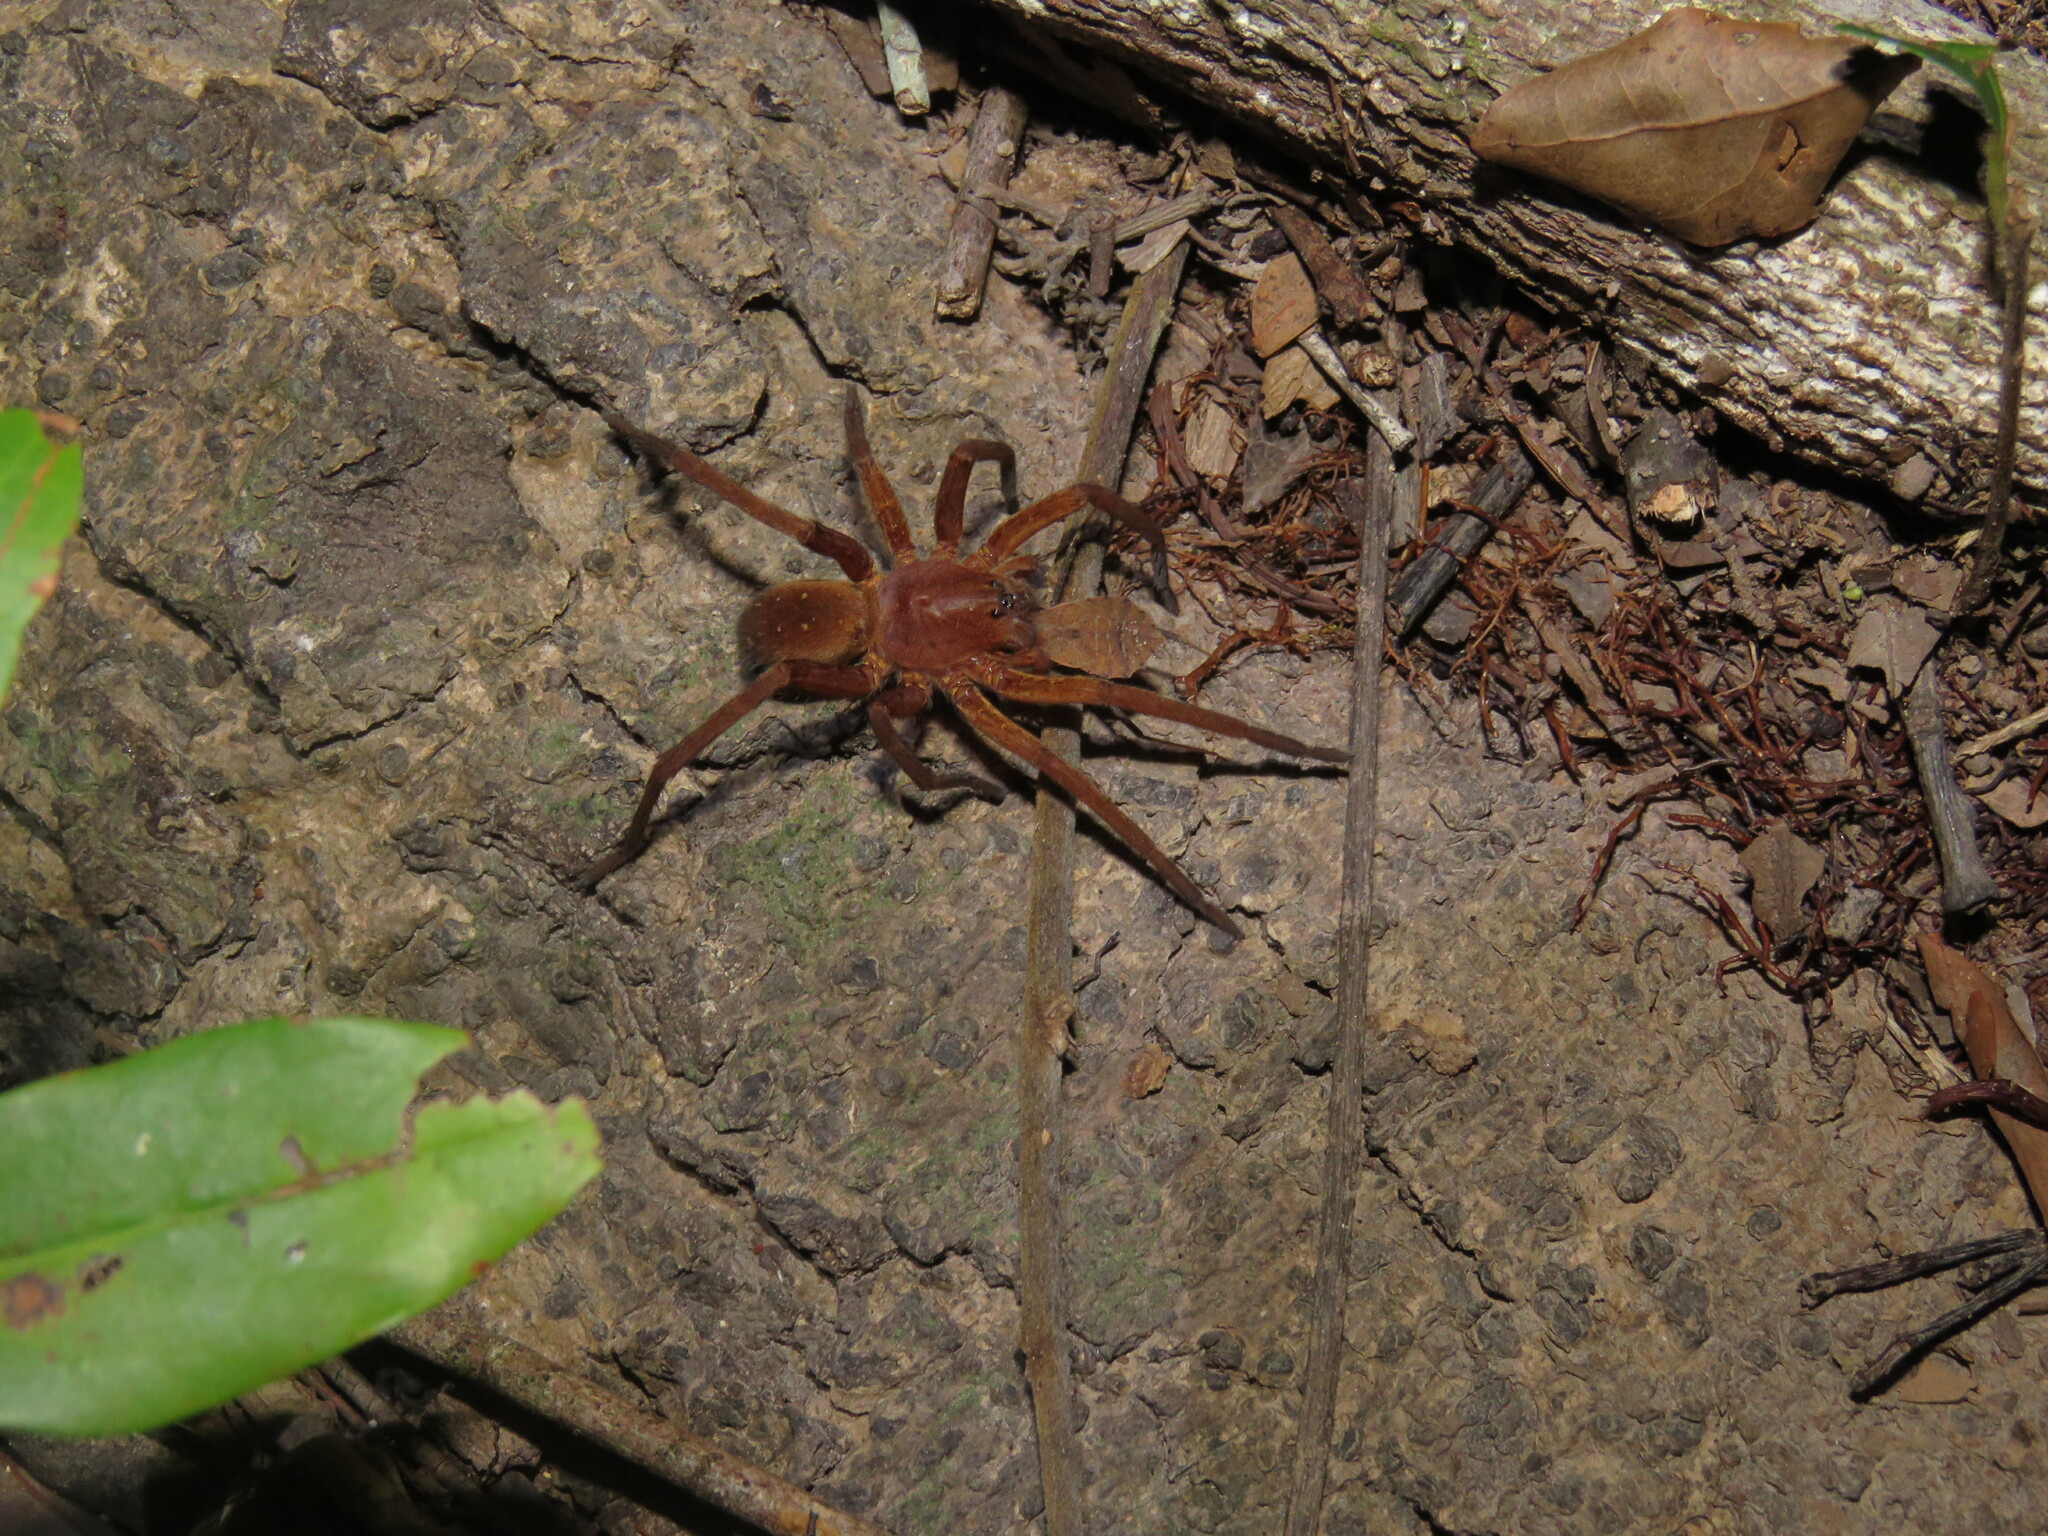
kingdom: Animalia
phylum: Arthropoda
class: Arachnida
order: Araneae
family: Ctenidae
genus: Ancylometes
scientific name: Ancylometes rufus
